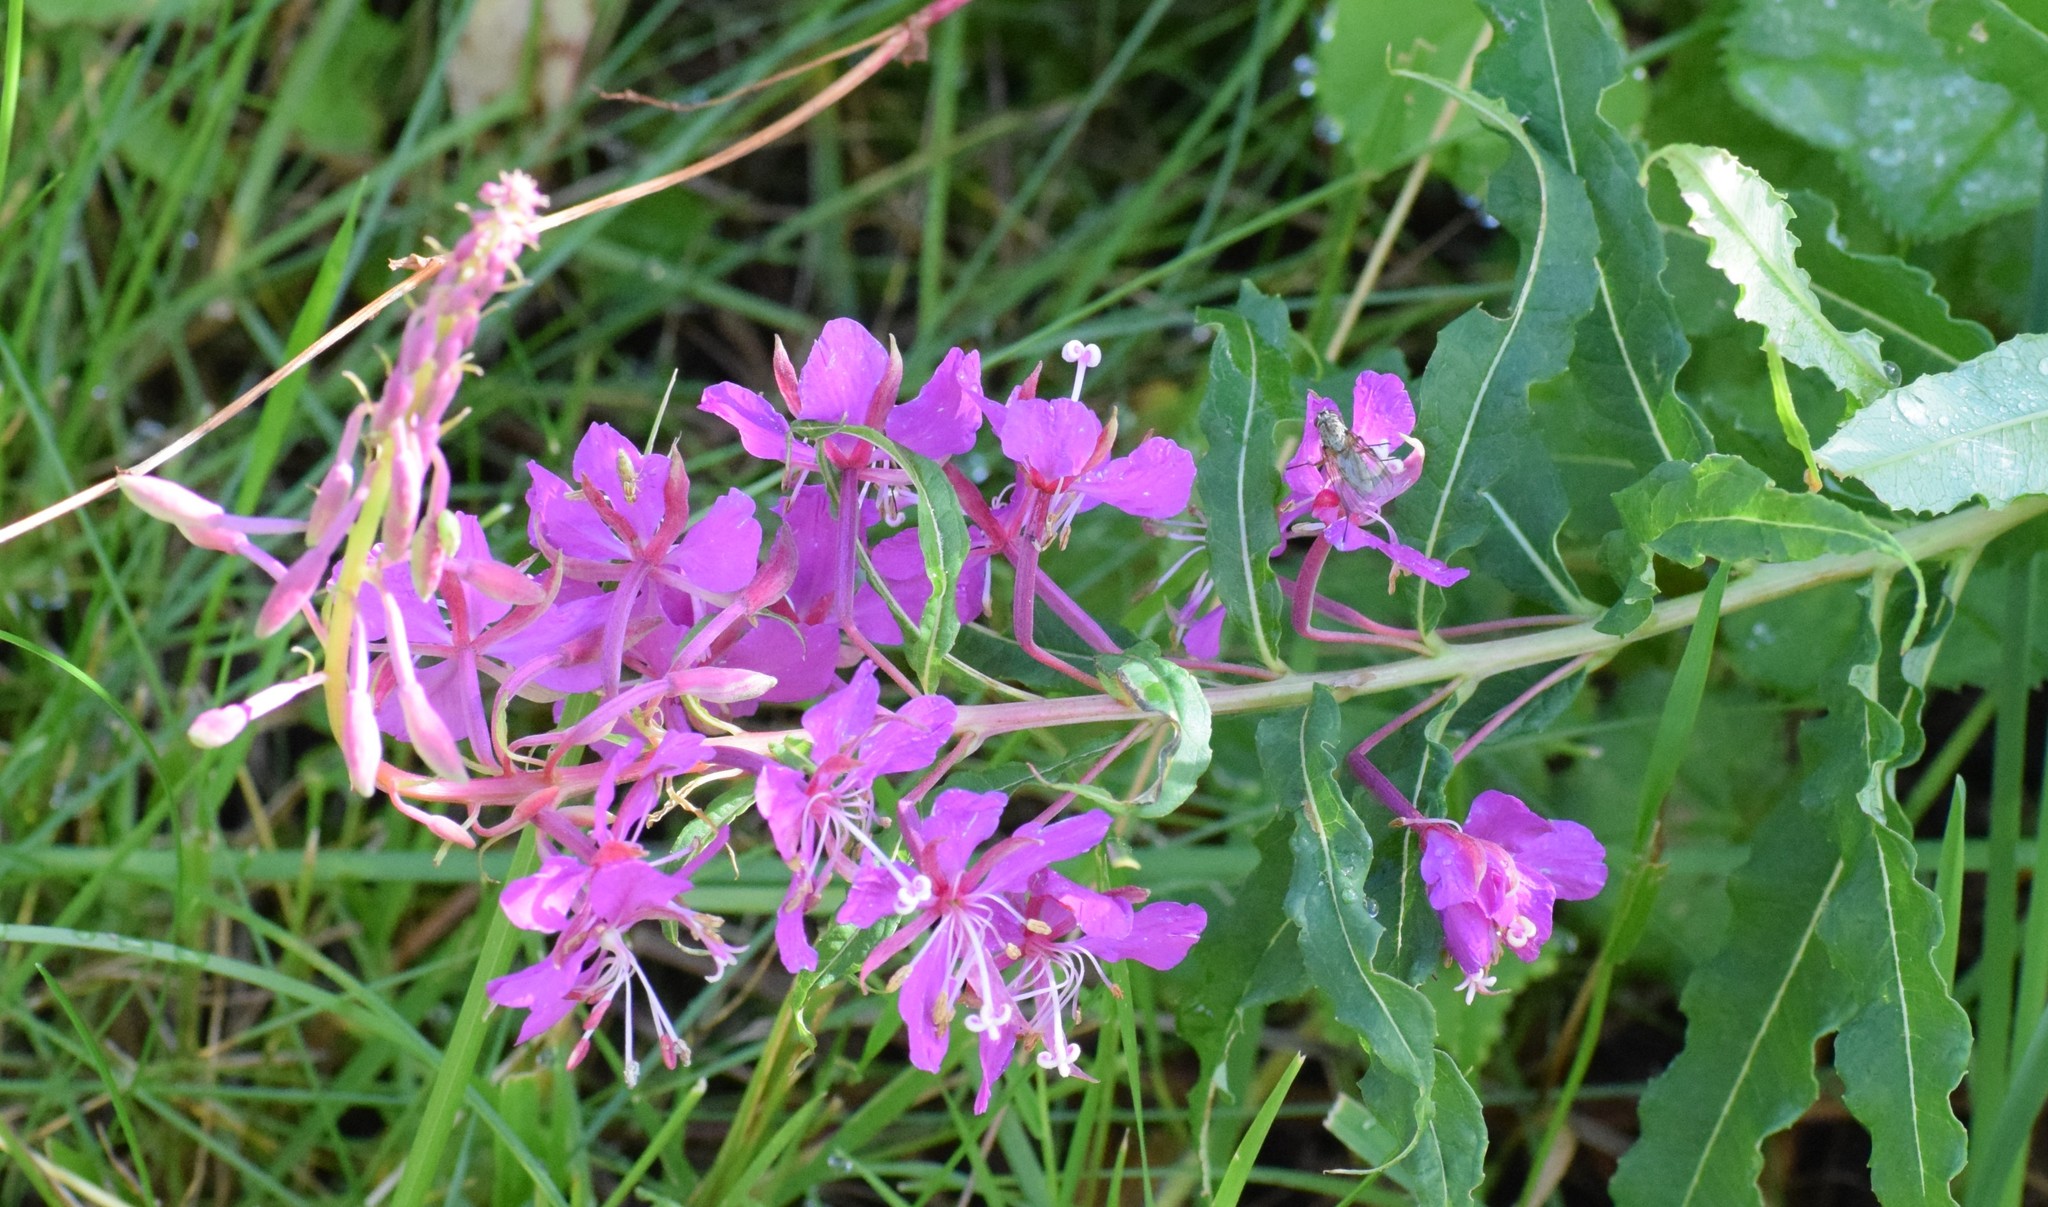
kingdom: Plantae
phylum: Tracheophyta
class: Magnoliopsida
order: Myrtales
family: Onagraceae
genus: Chamaenerion
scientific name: Chamaenerion angustifolium
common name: Fireweed
